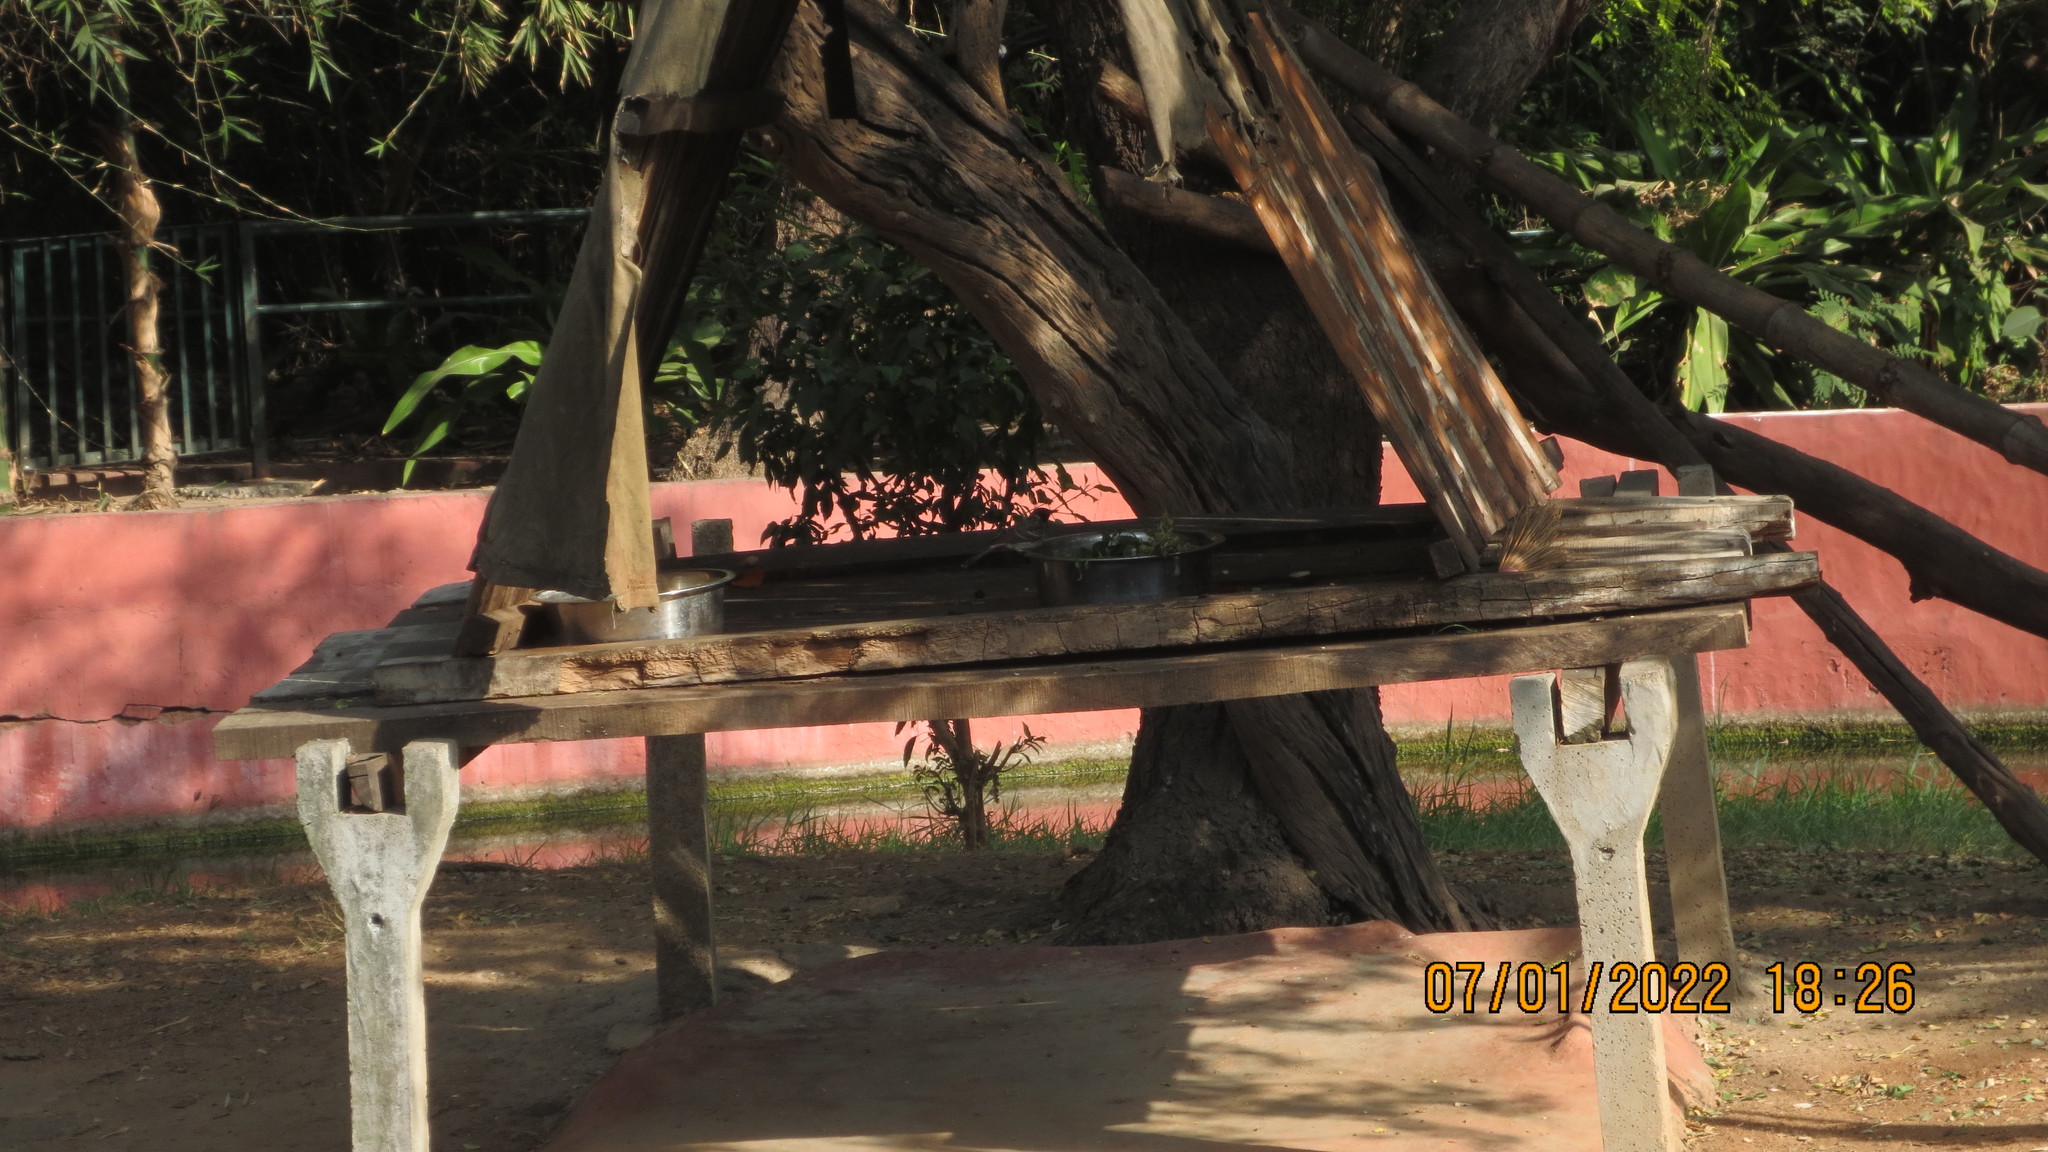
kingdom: Animalia
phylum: Chordata
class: Aves
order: Passeriformes
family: Pycnonotidae
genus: Pycnonotus
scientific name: Pycnonotus cafer
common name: Red-vented bulbul
